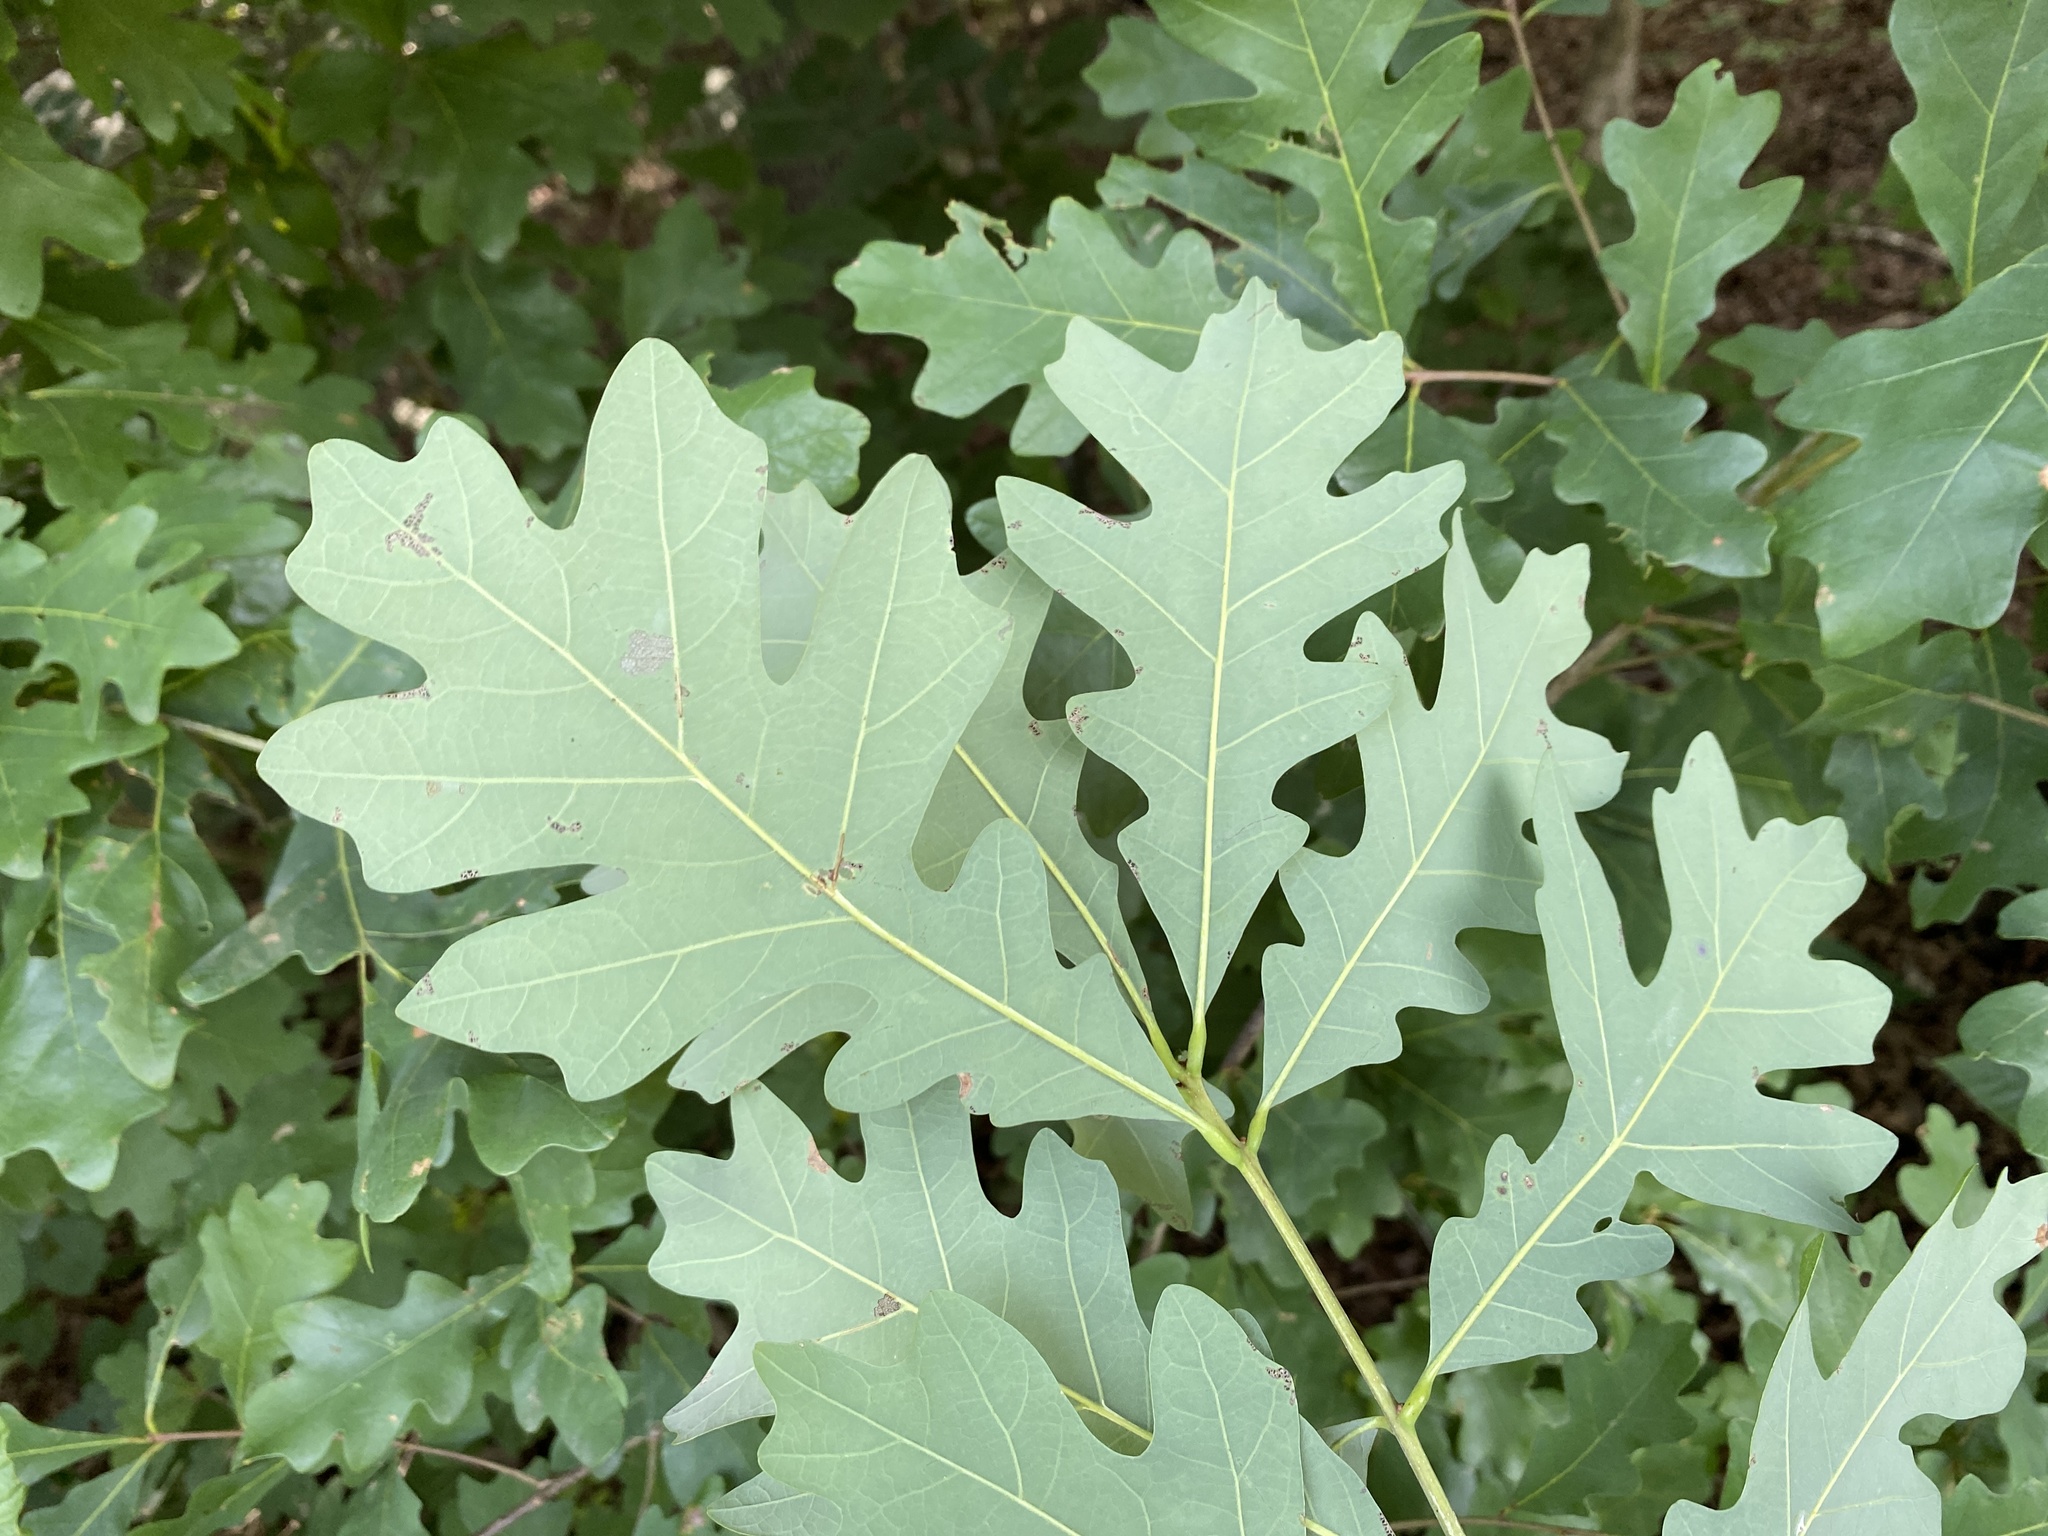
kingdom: Plantae
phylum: Tracheophyta
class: Magnoliopsida
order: Fagales
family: Fagaceae
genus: Quercus
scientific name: Quercus alba
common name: White oak
